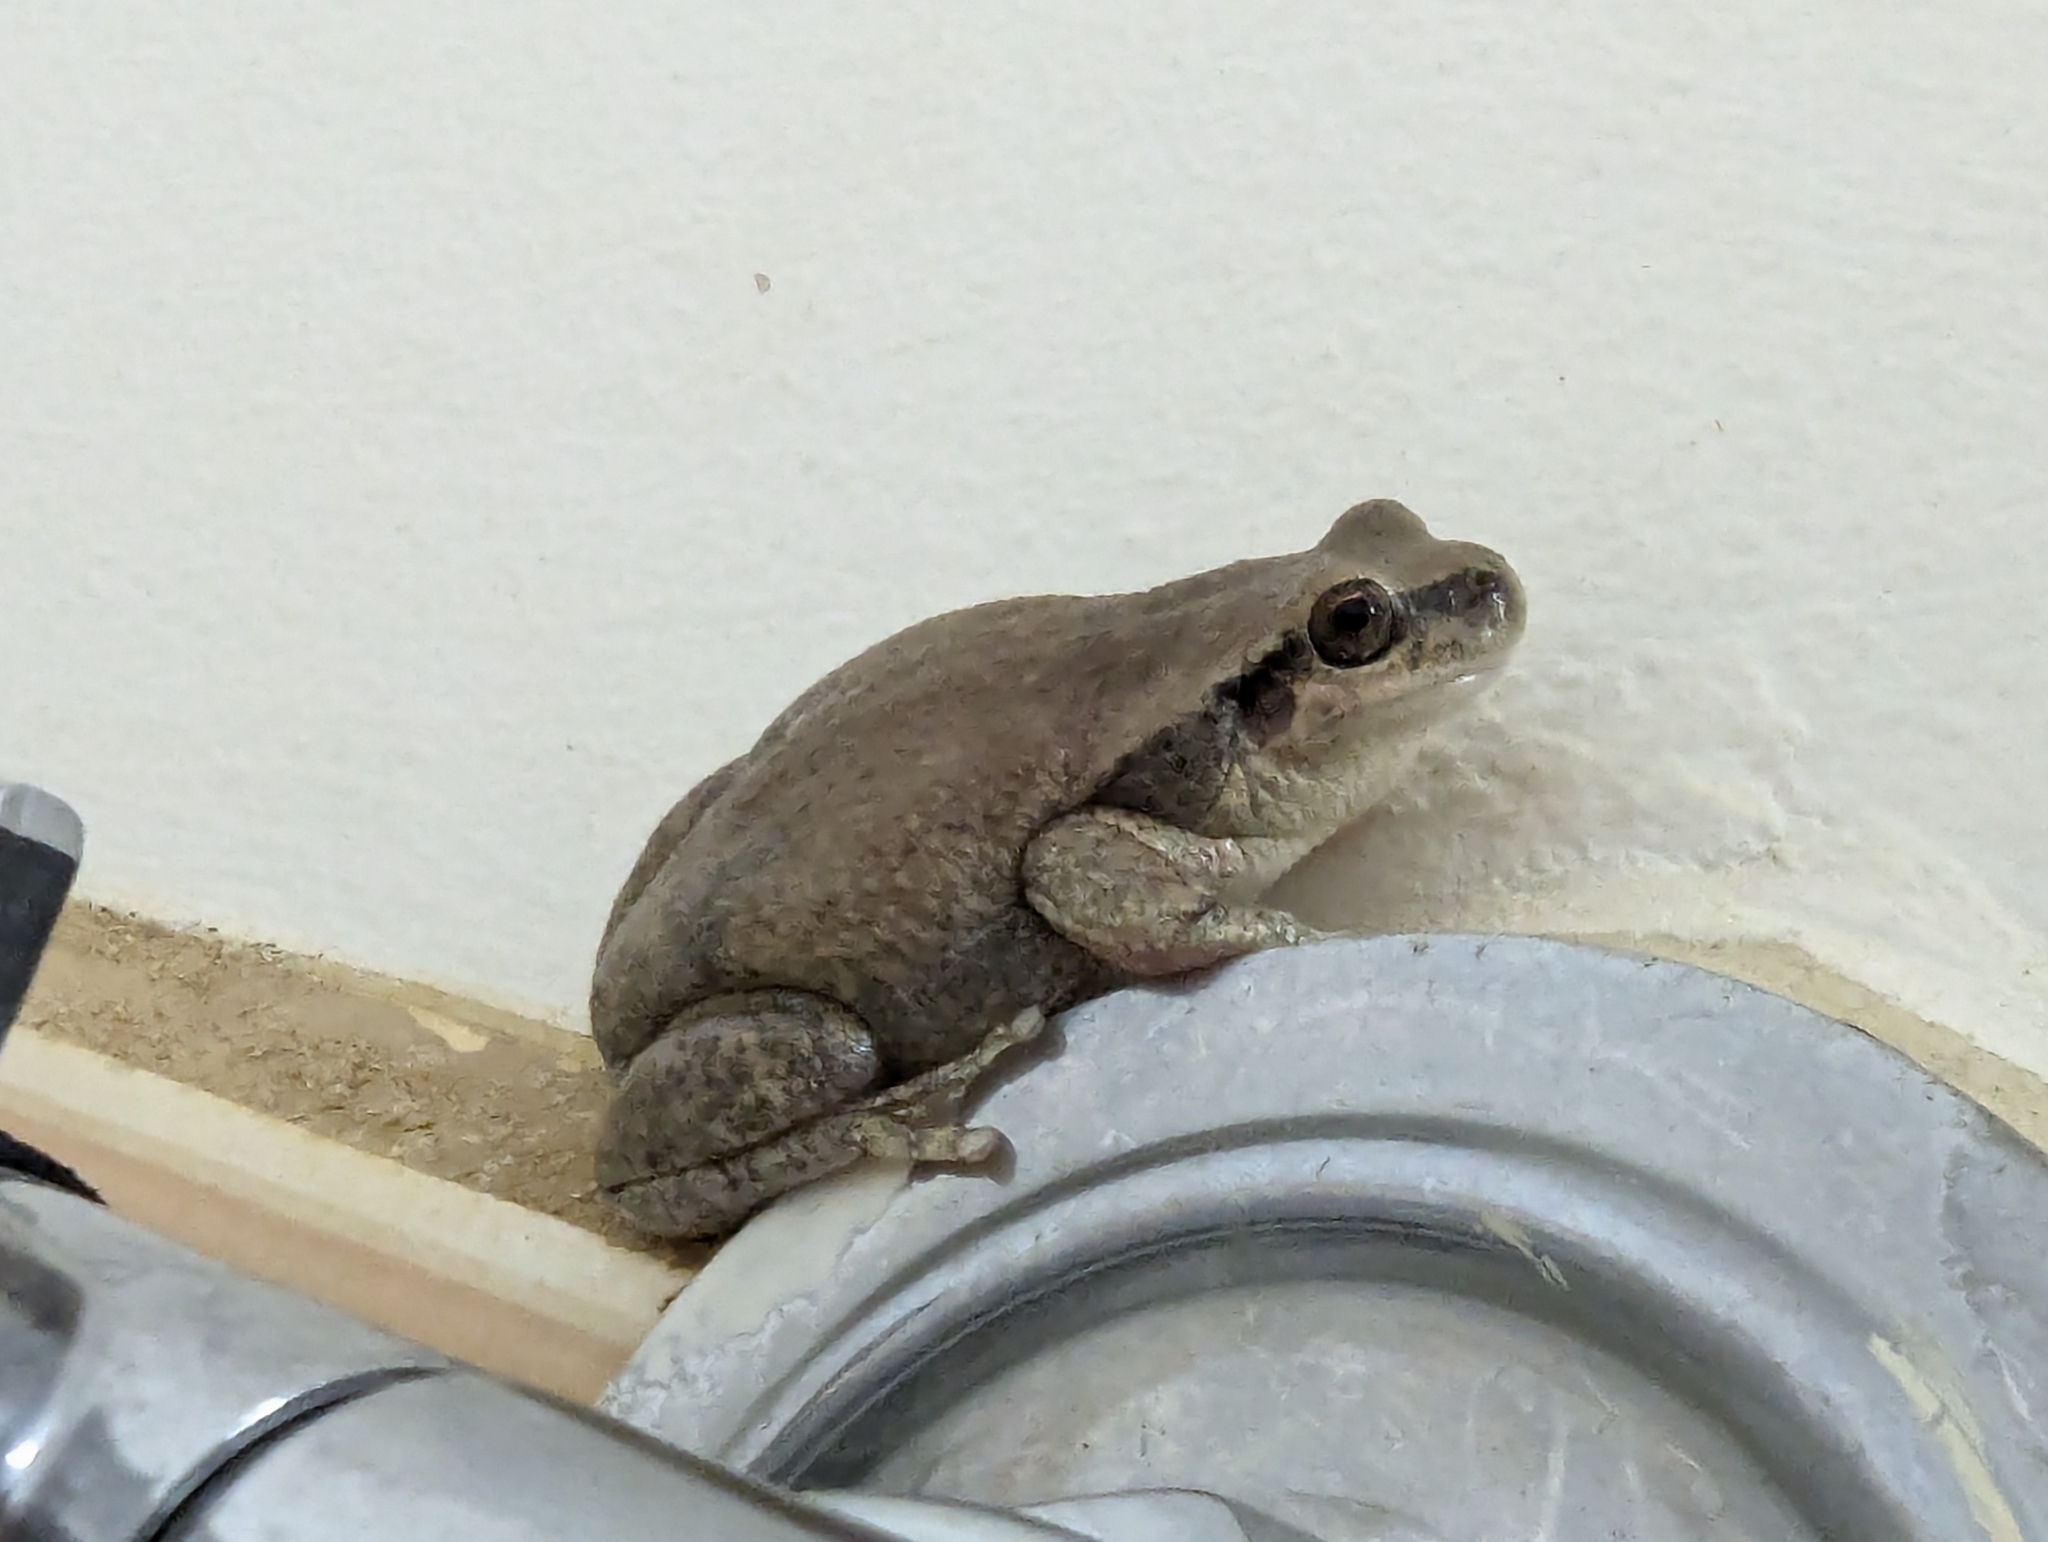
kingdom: Animalia
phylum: Chordata
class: Amphibia
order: Anura
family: Pelodryadidae
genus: Litoria
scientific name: Litoria rubella
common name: Desert tree frog
